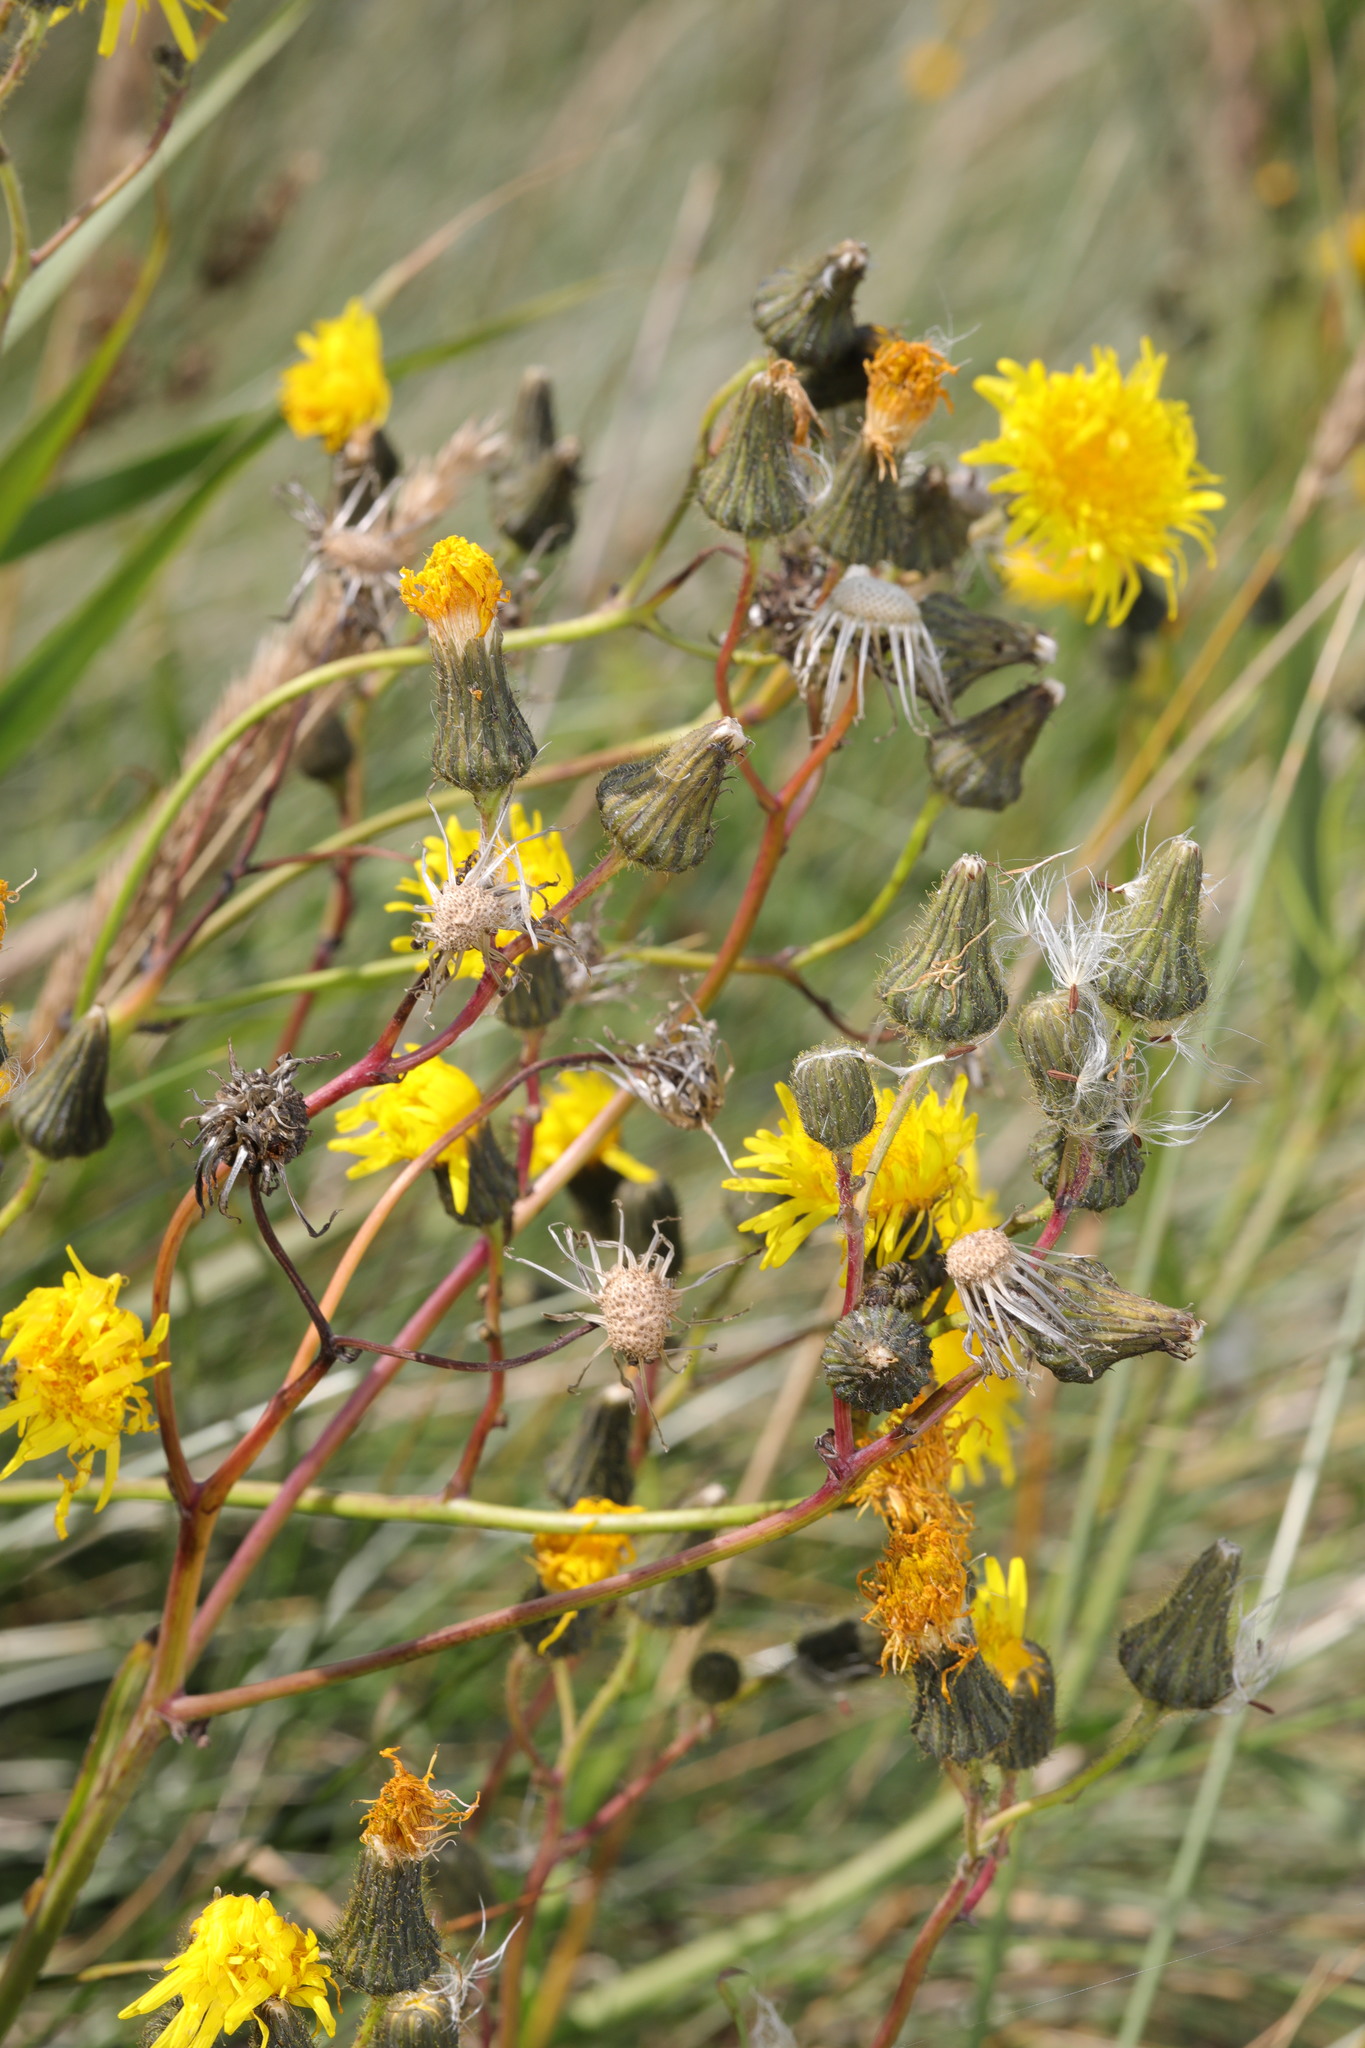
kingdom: Plantae
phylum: Tracheophyta
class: Magnoliopsida
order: Asterales
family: Asteraceae
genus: Sonchus
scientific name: Sonchus arvensis
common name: Perennial sow-thistle
